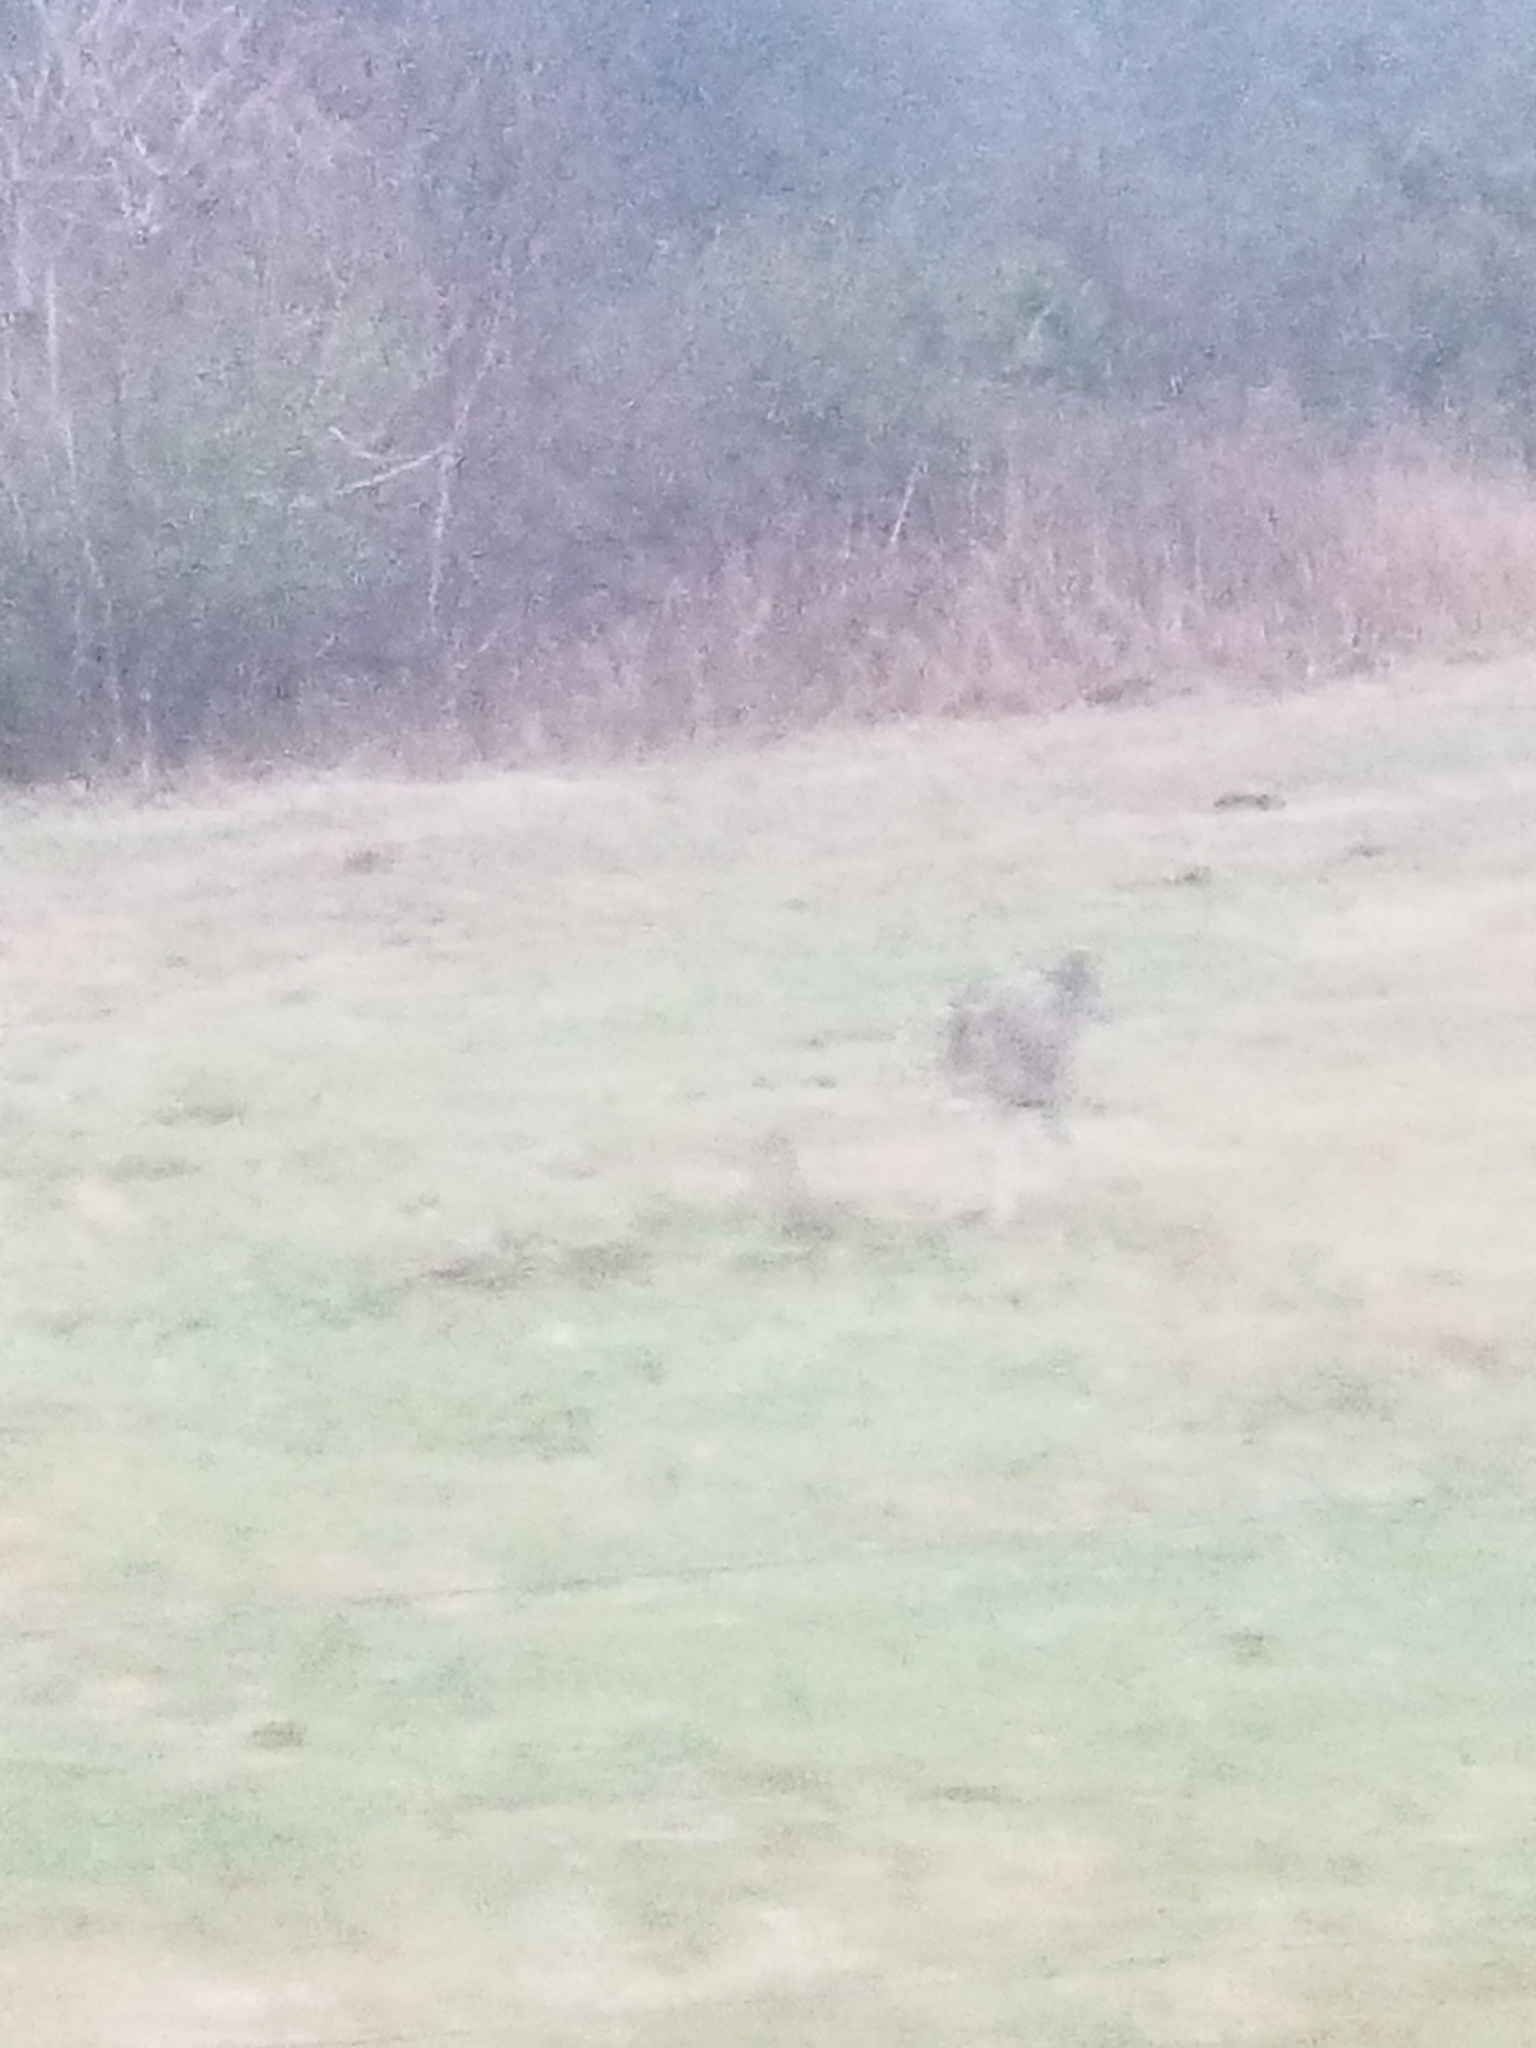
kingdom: Animalia
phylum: Chordata
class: Mammalia
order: Artiodactyla
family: Cervidae
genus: Odocoileus
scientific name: Odocoileus virginianus
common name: White-tailed deer
